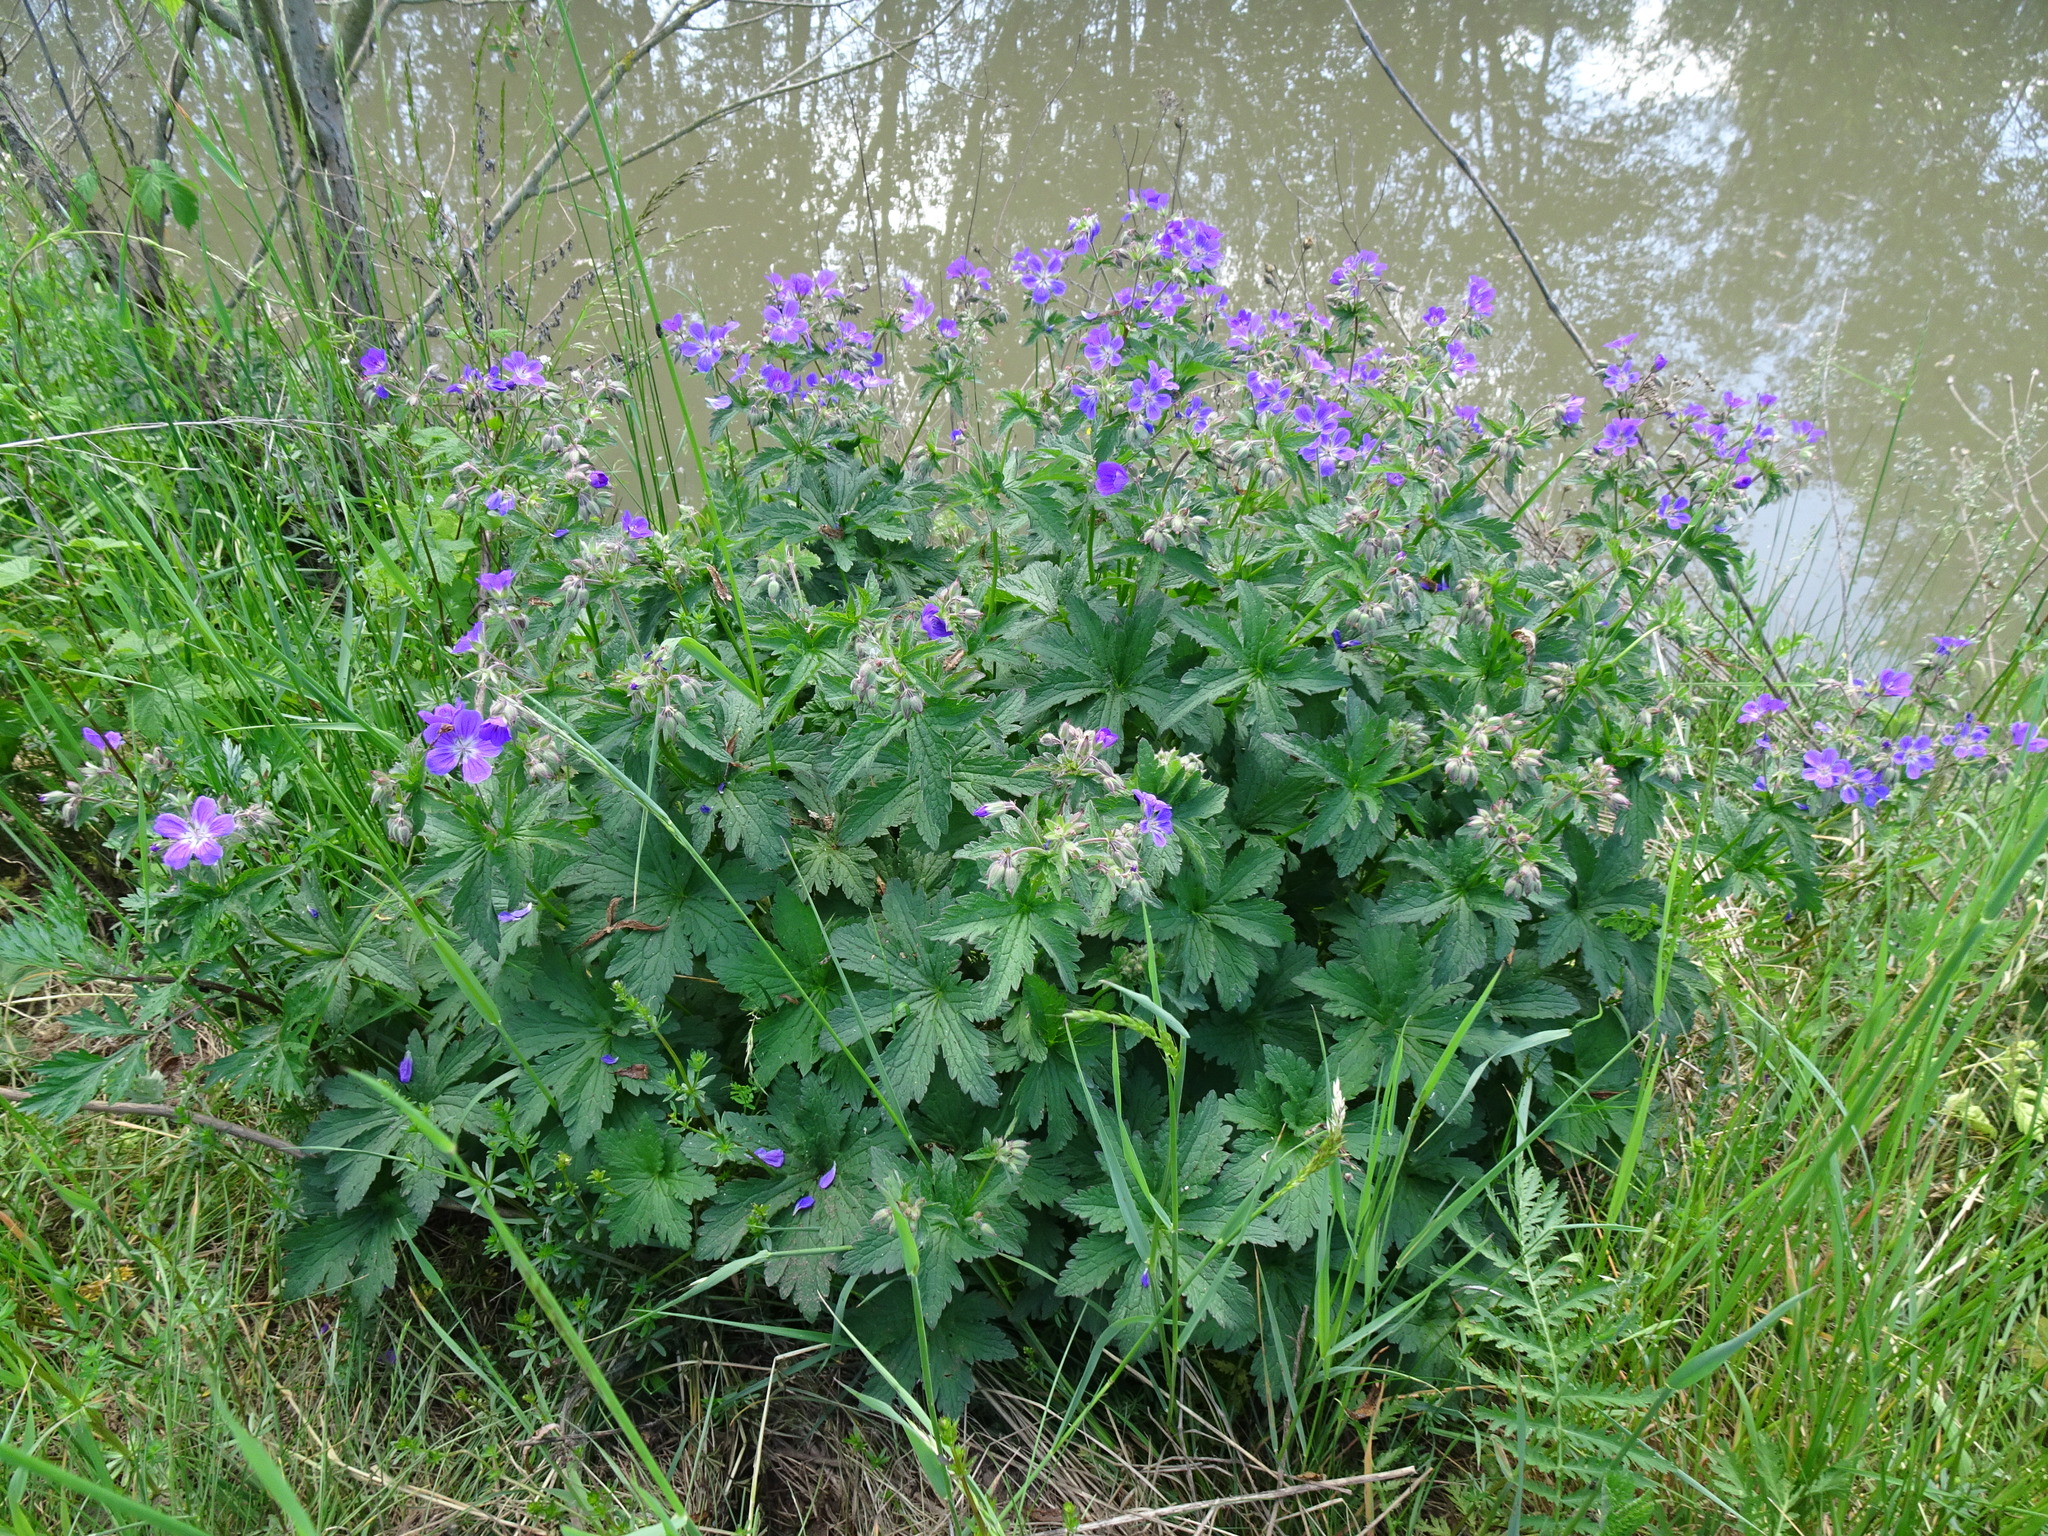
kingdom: Plantae
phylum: Tracheophyta
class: Magnoliopsida
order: Geraniales
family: Geraniaceae
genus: Geranium
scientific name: Geranium pratense
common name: Meadow crane's-bill
